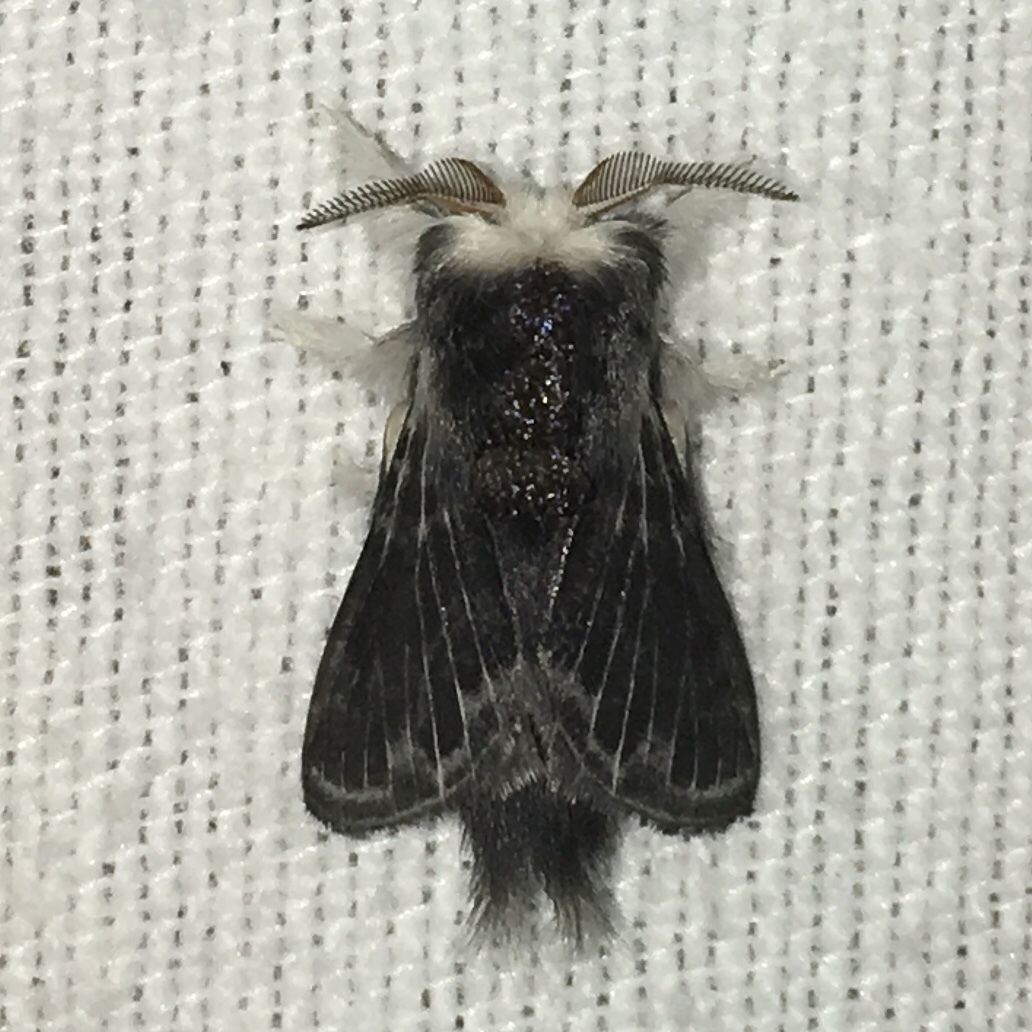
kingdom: Animalia
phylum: Arthropoda
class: Insecta
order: Lepidoptera
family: Lasiocampidae
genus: Tolype
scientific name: Tolype laricis
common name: Larch tolype moth
